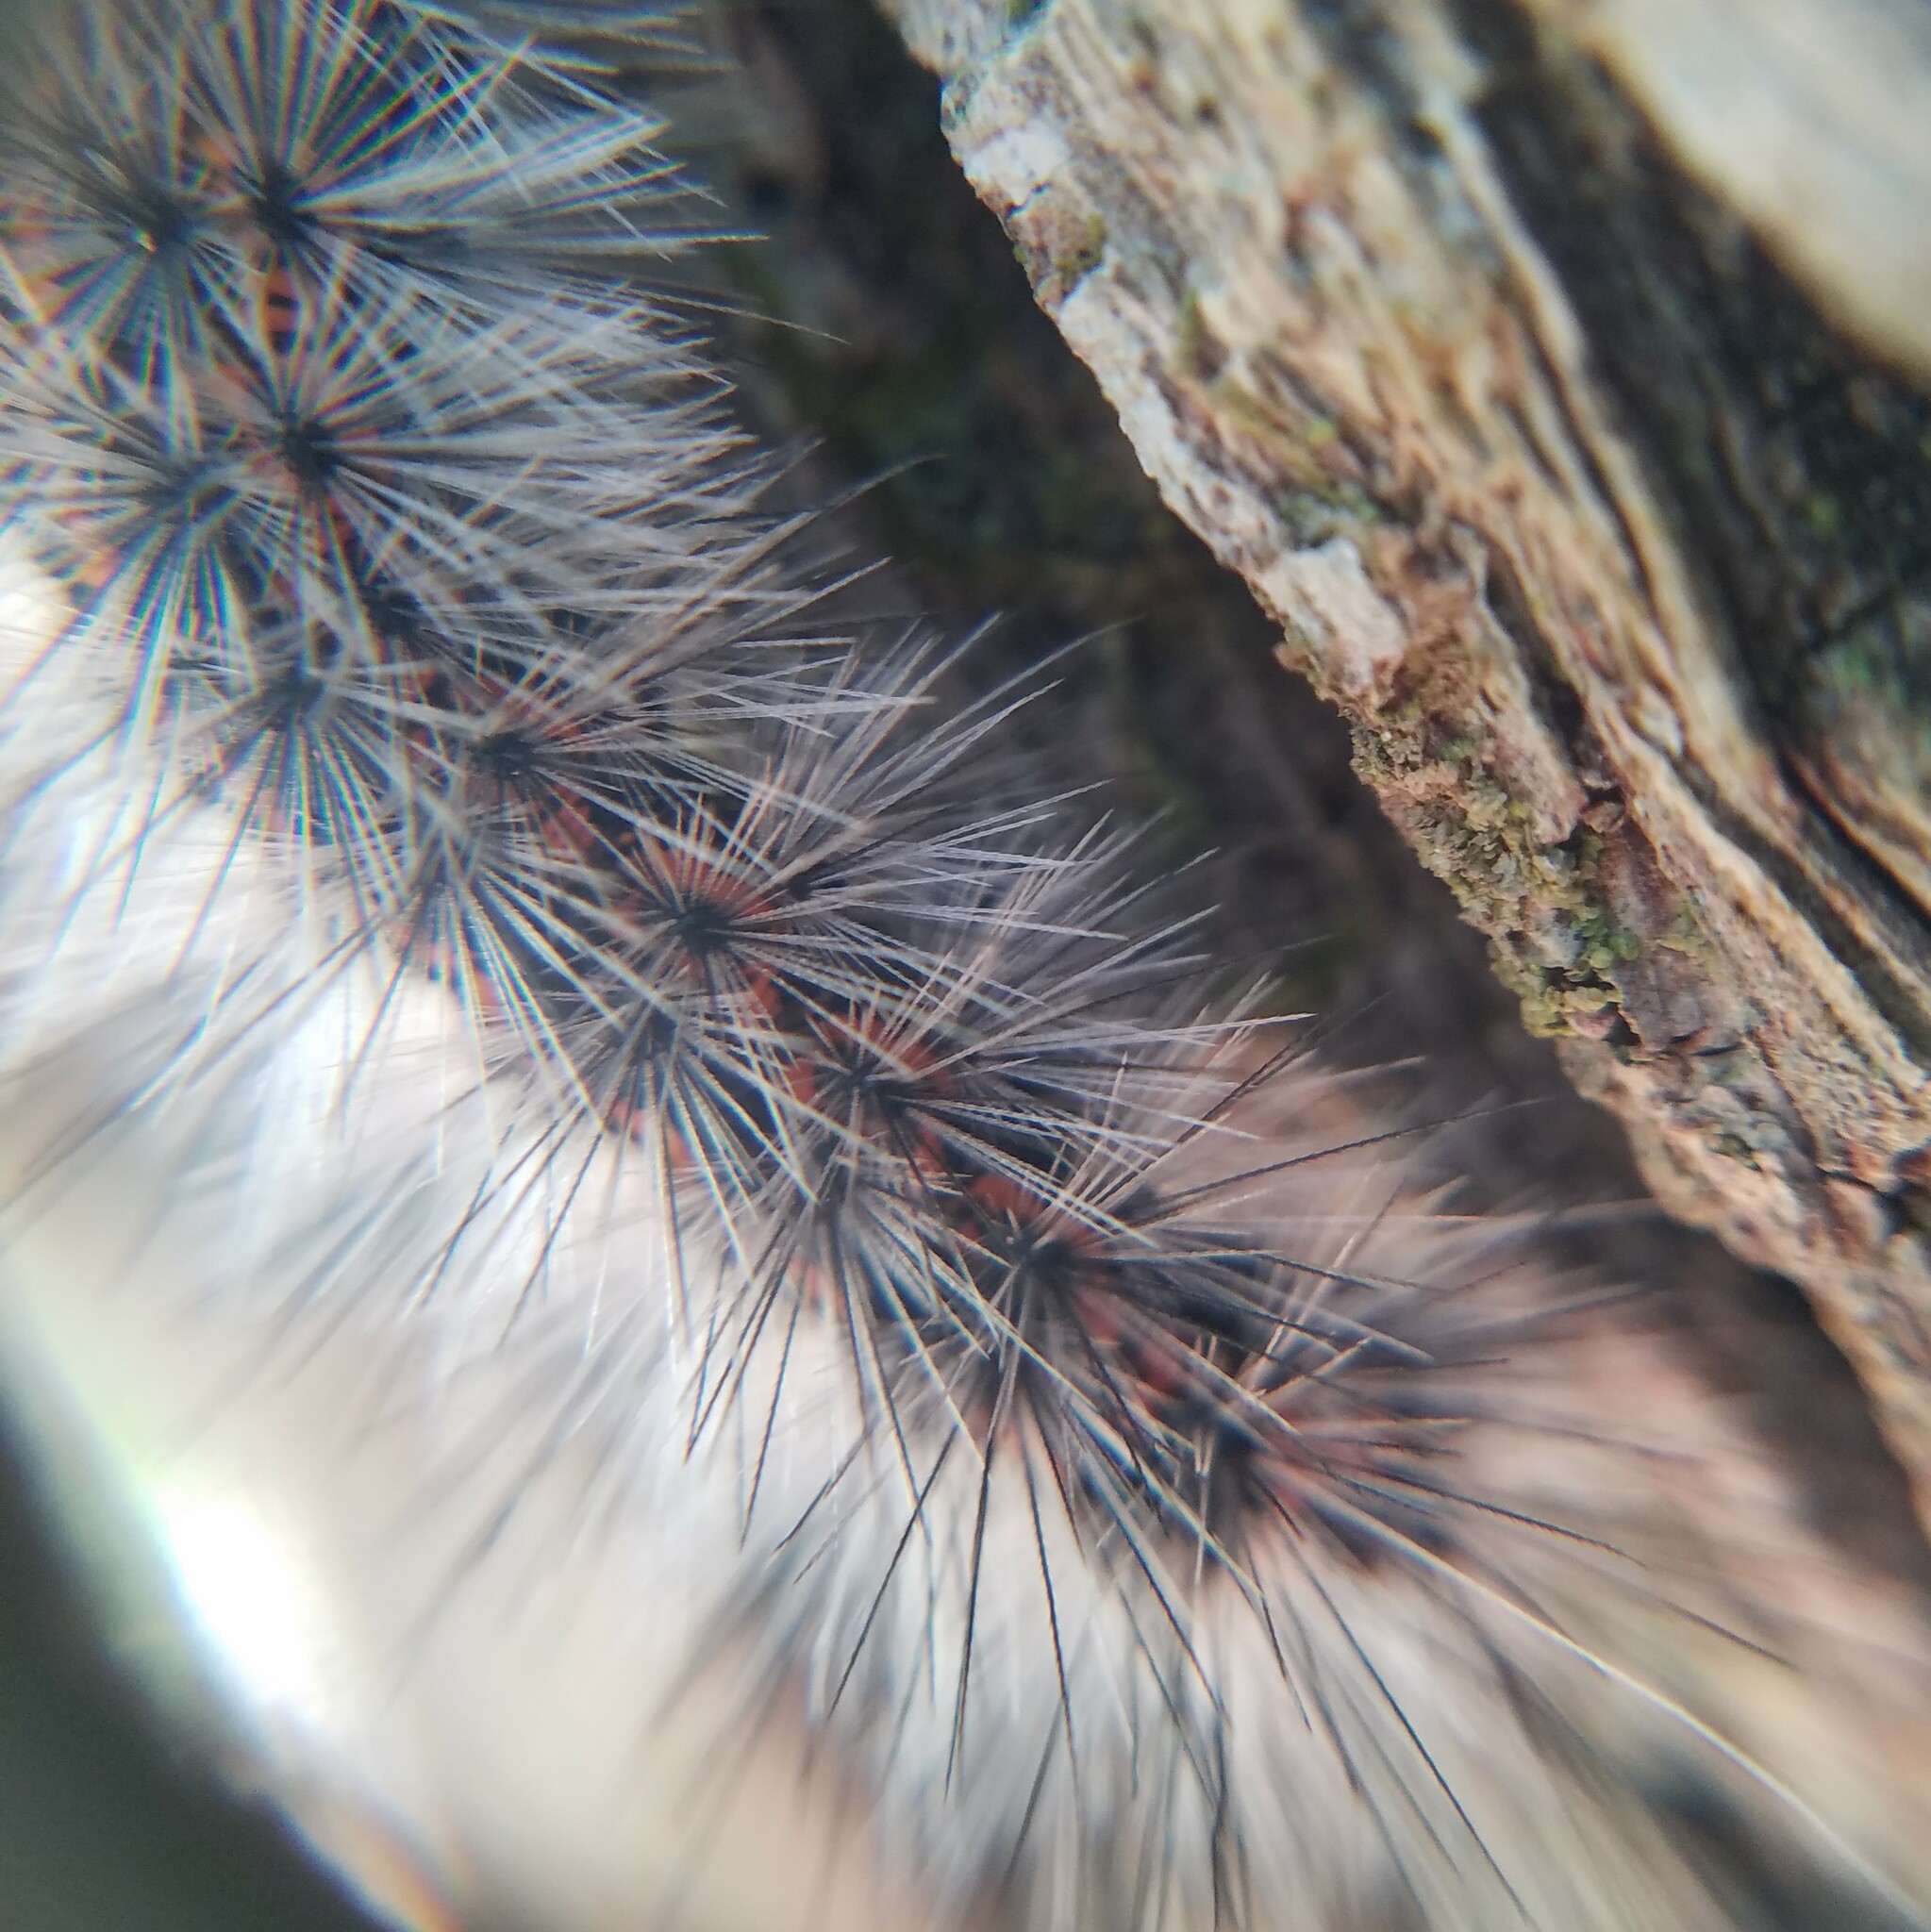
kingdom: Animalia
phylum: Arthropoda
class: Insecta
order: Lepidoptera
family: Erebidae
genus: Spilosoma
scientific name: Spilosoma dubia
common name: Dubious tiger moth
